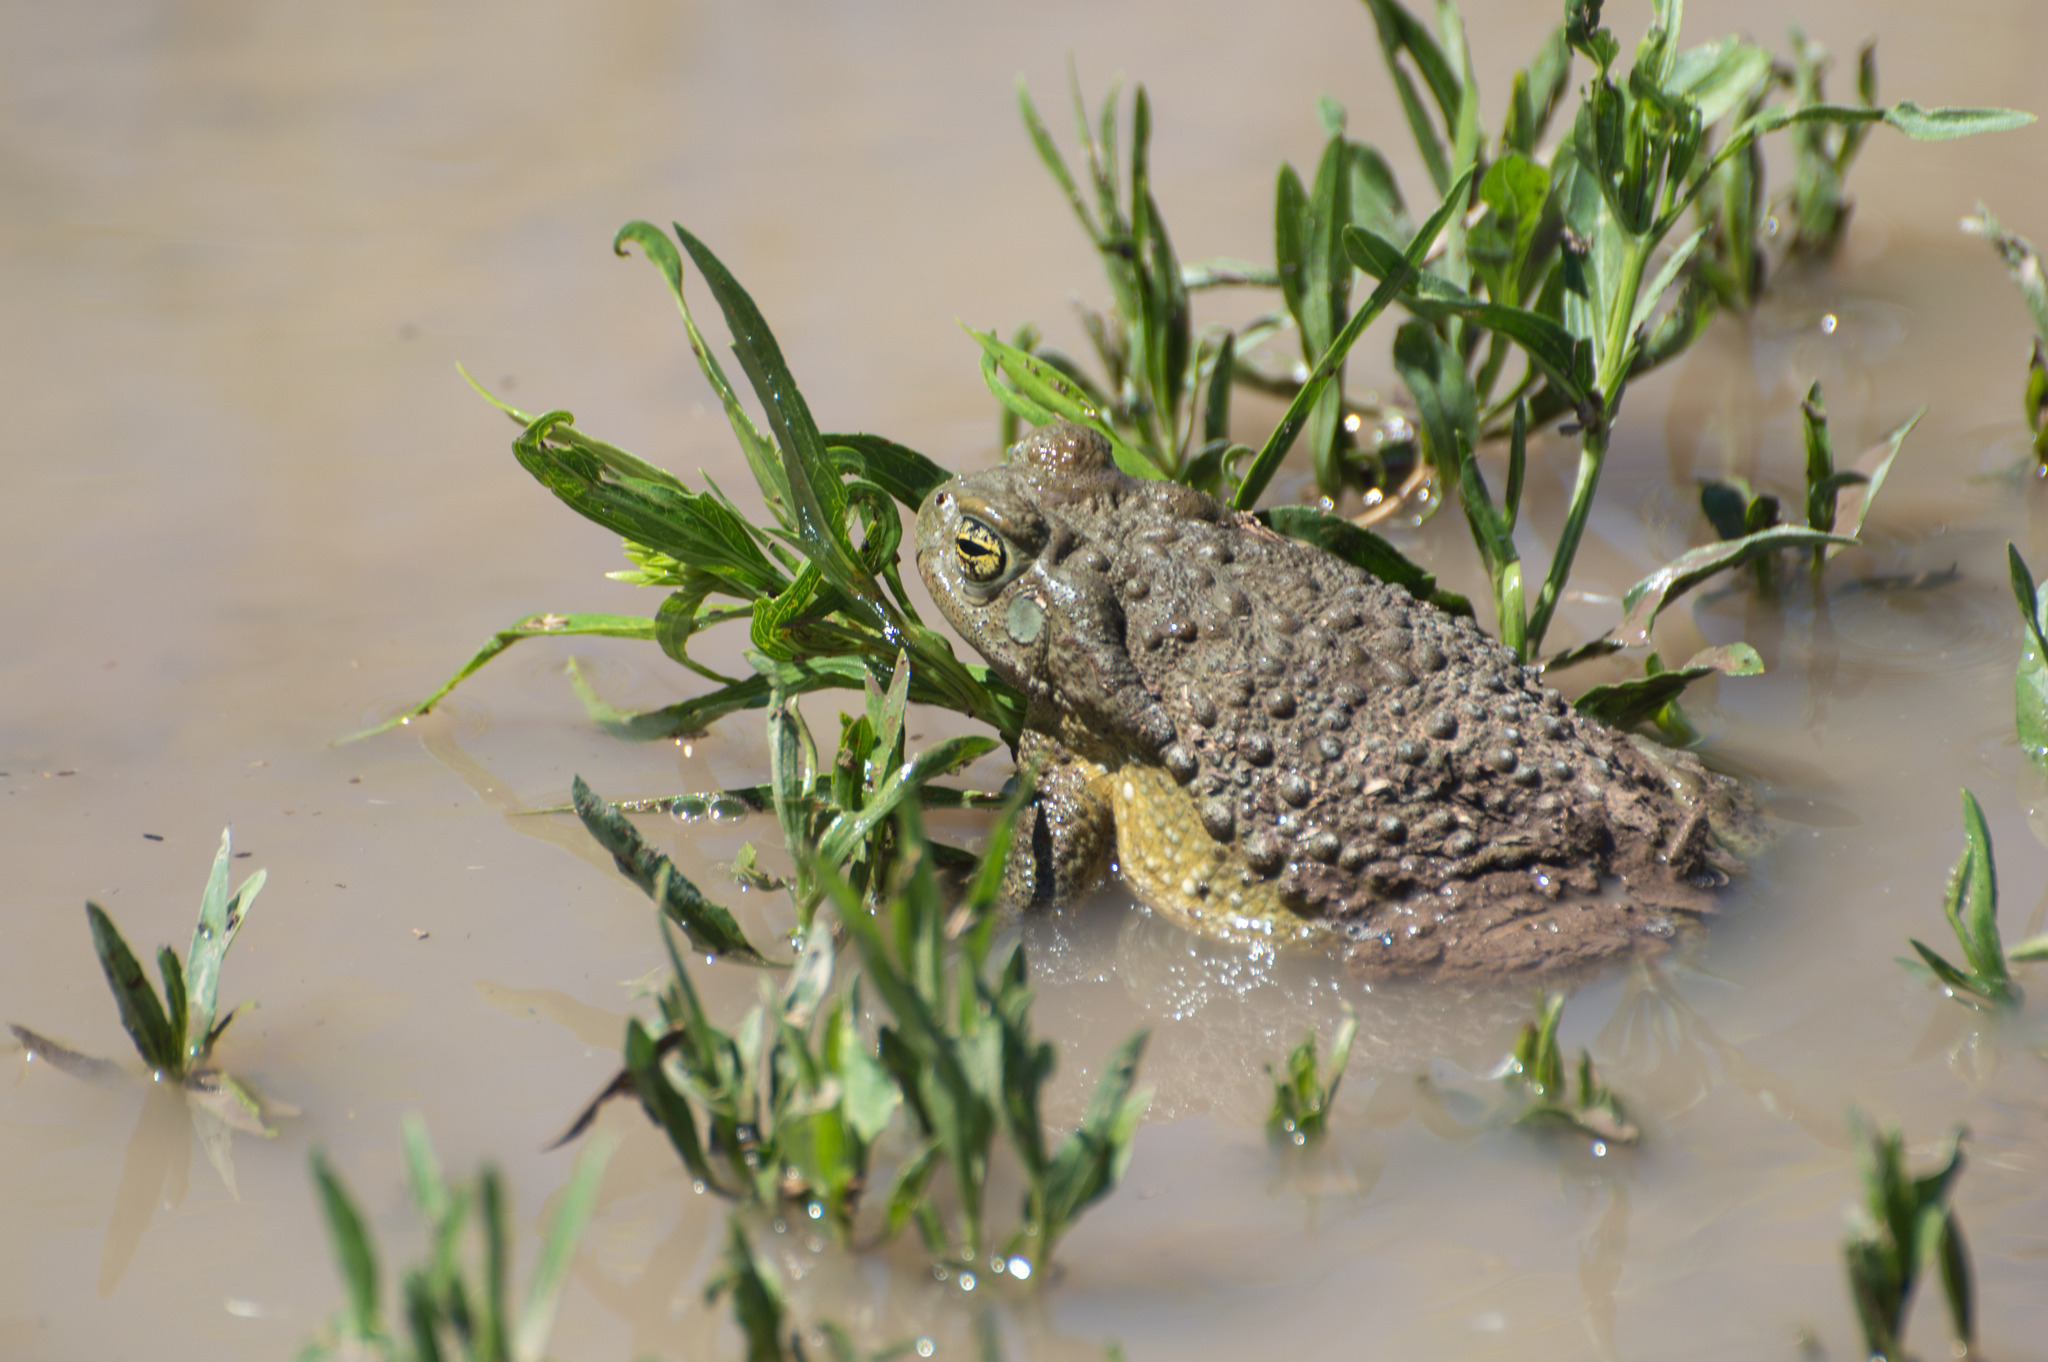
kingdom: Animalia
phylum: Chordata
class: Amphibia
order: Anura
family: Bufonidae
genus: Rhinella
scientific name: Rhinella arenarum
